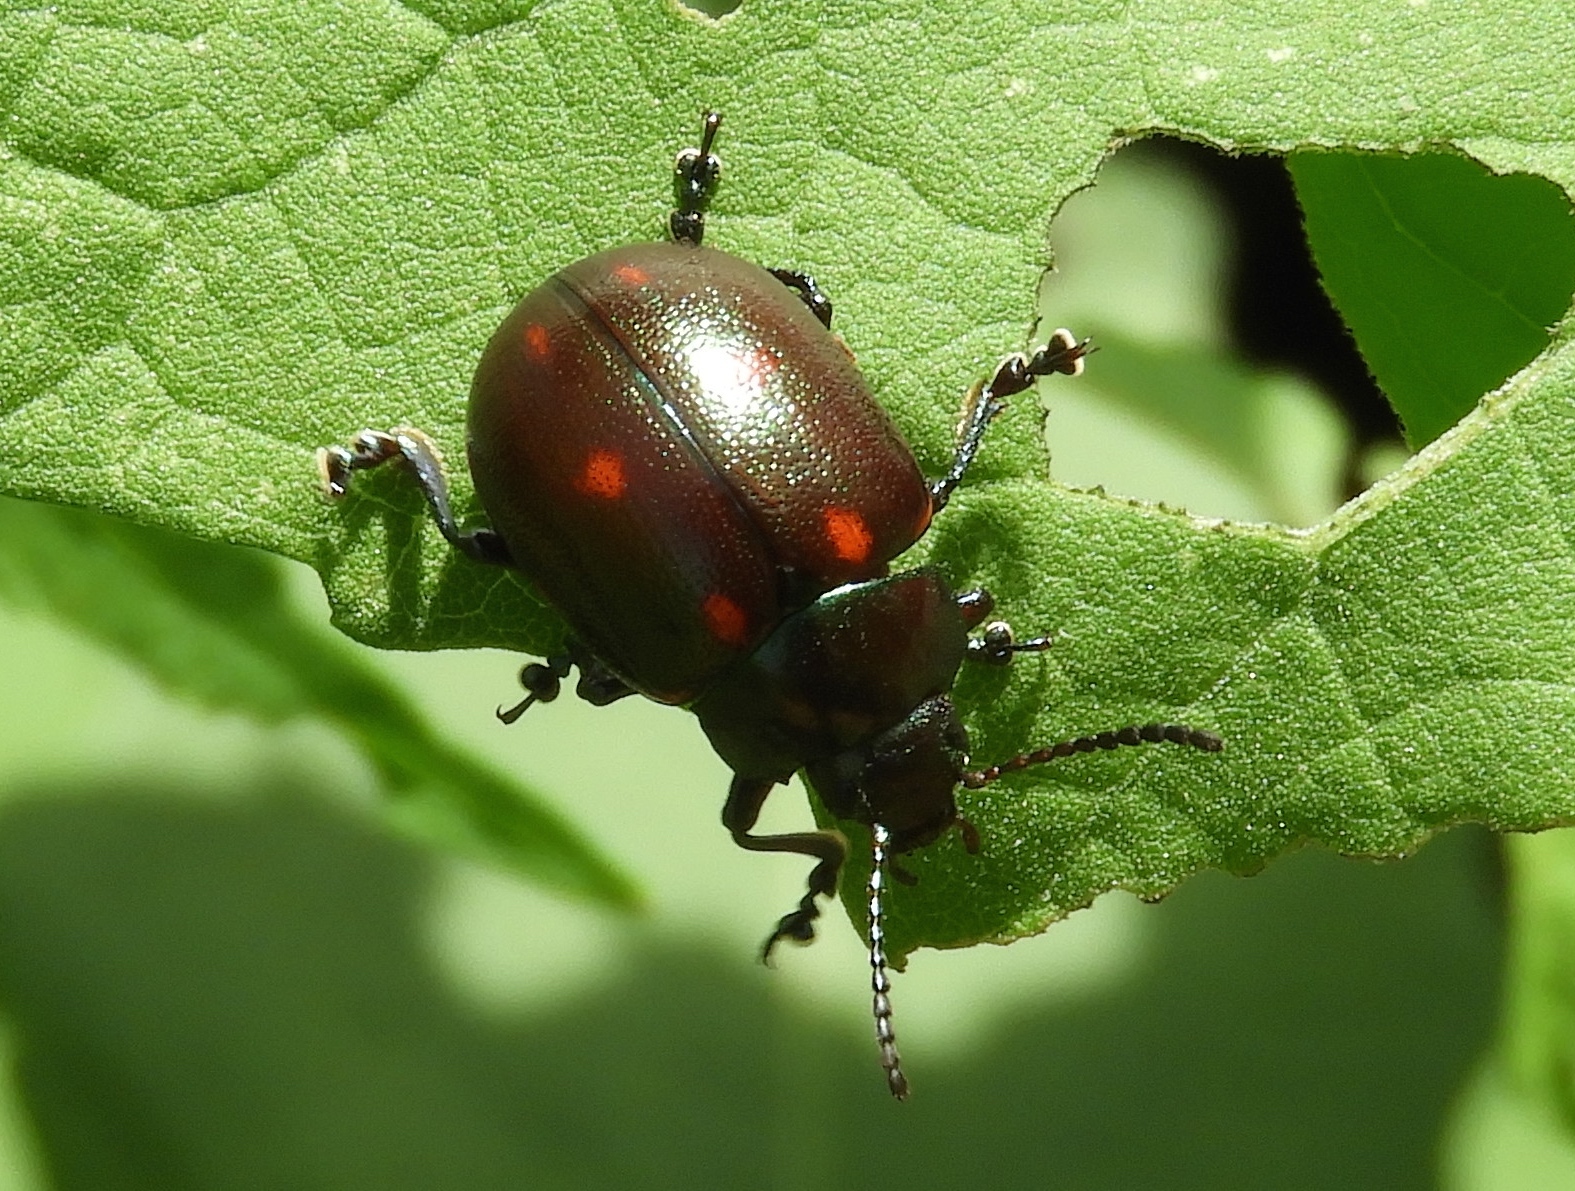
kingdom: Animalia
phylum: Arthropoda
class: Insecta
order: Coleoptera
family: Chrysomelidae
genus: Leptinotarsa
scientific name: Leptinotarsa behrensi
